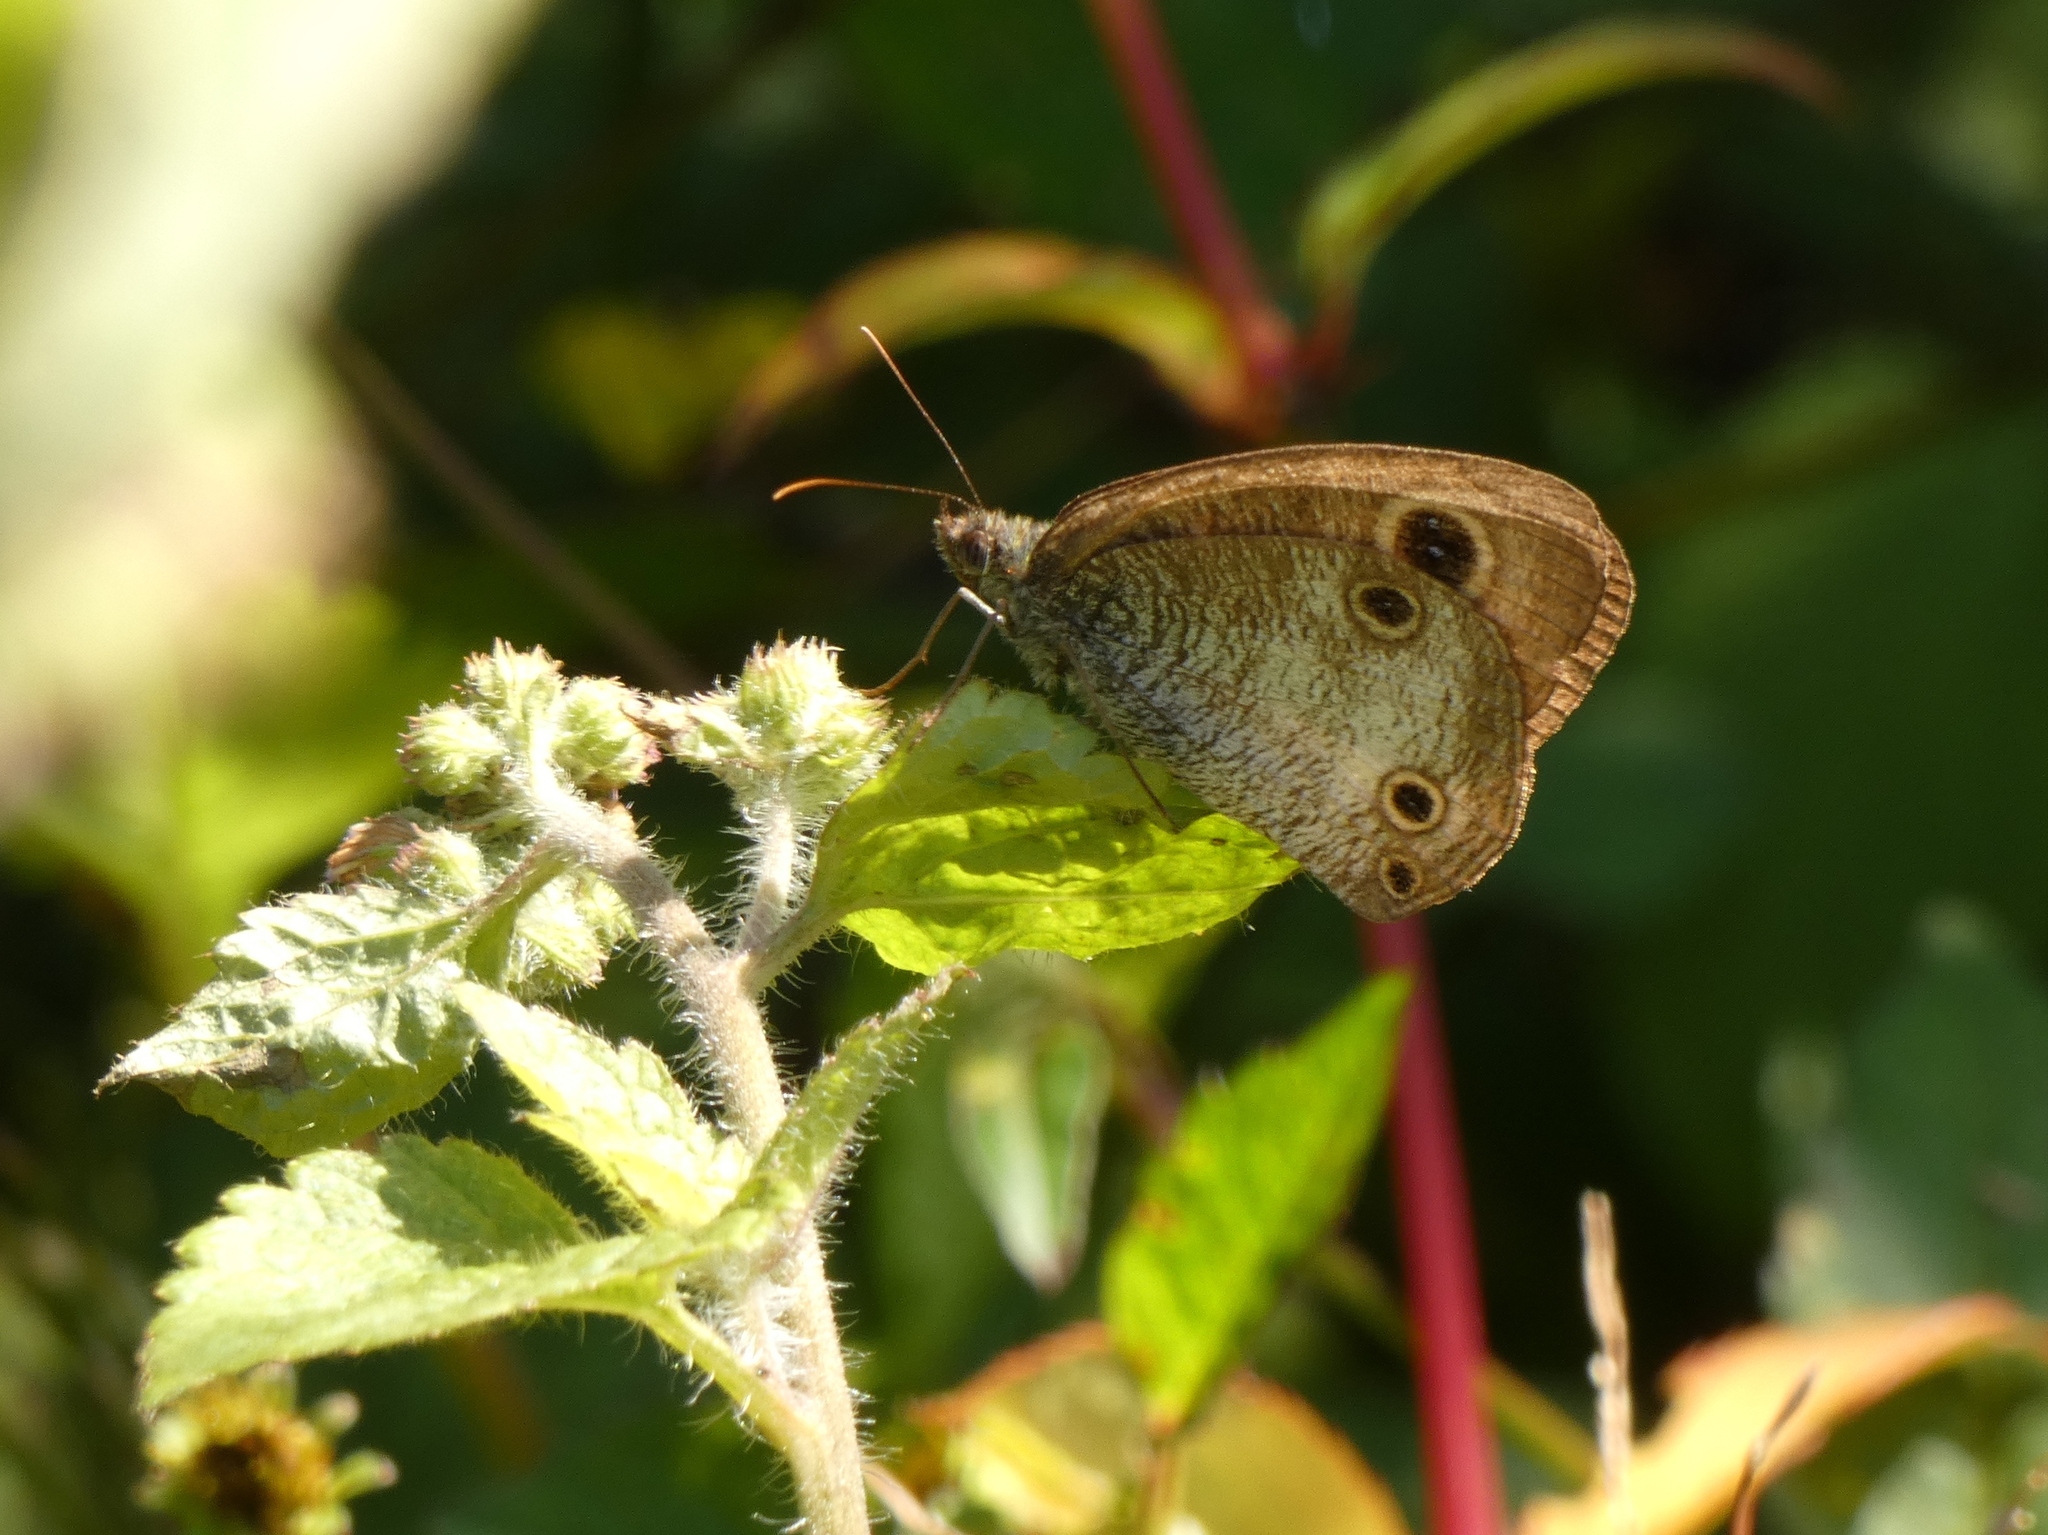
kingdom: Animalia
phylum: Arthropoda
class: Insecta
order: Lepidoptera
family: Nymphalidae
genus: Ypthima
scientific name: Ypthima pandocus
